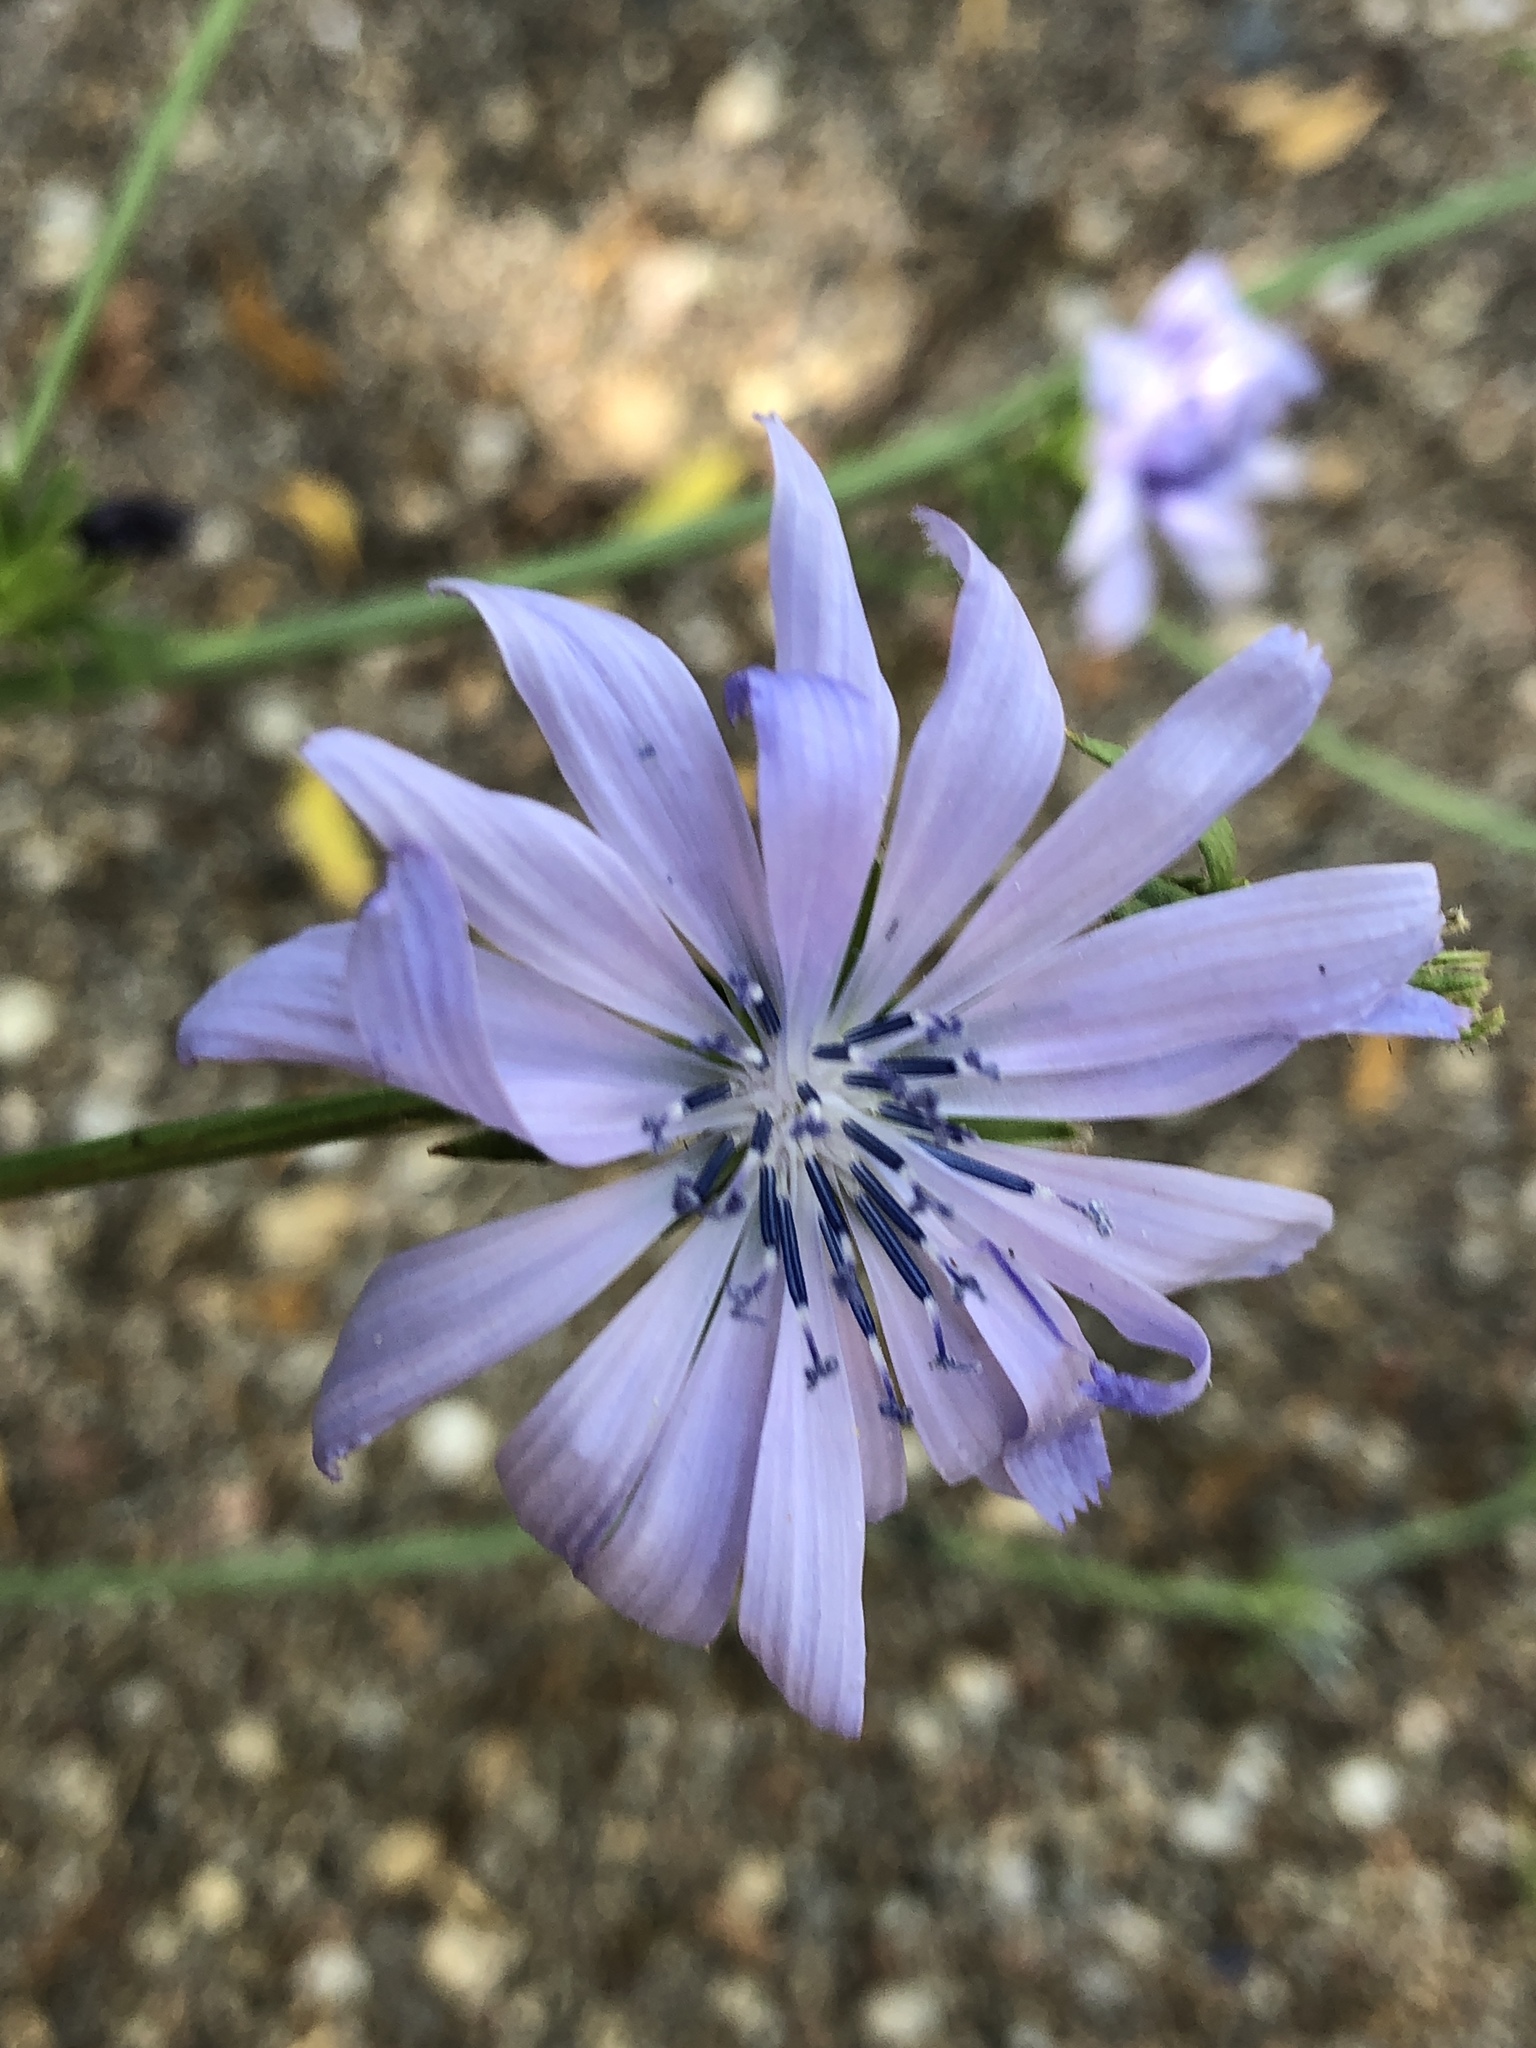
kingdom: Plantae
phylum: Tracheophyta
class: Magnoliopsida
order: Asterales
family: Asteraceae
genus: Cichorium
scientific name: Cichorium intybus
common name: Chicory
